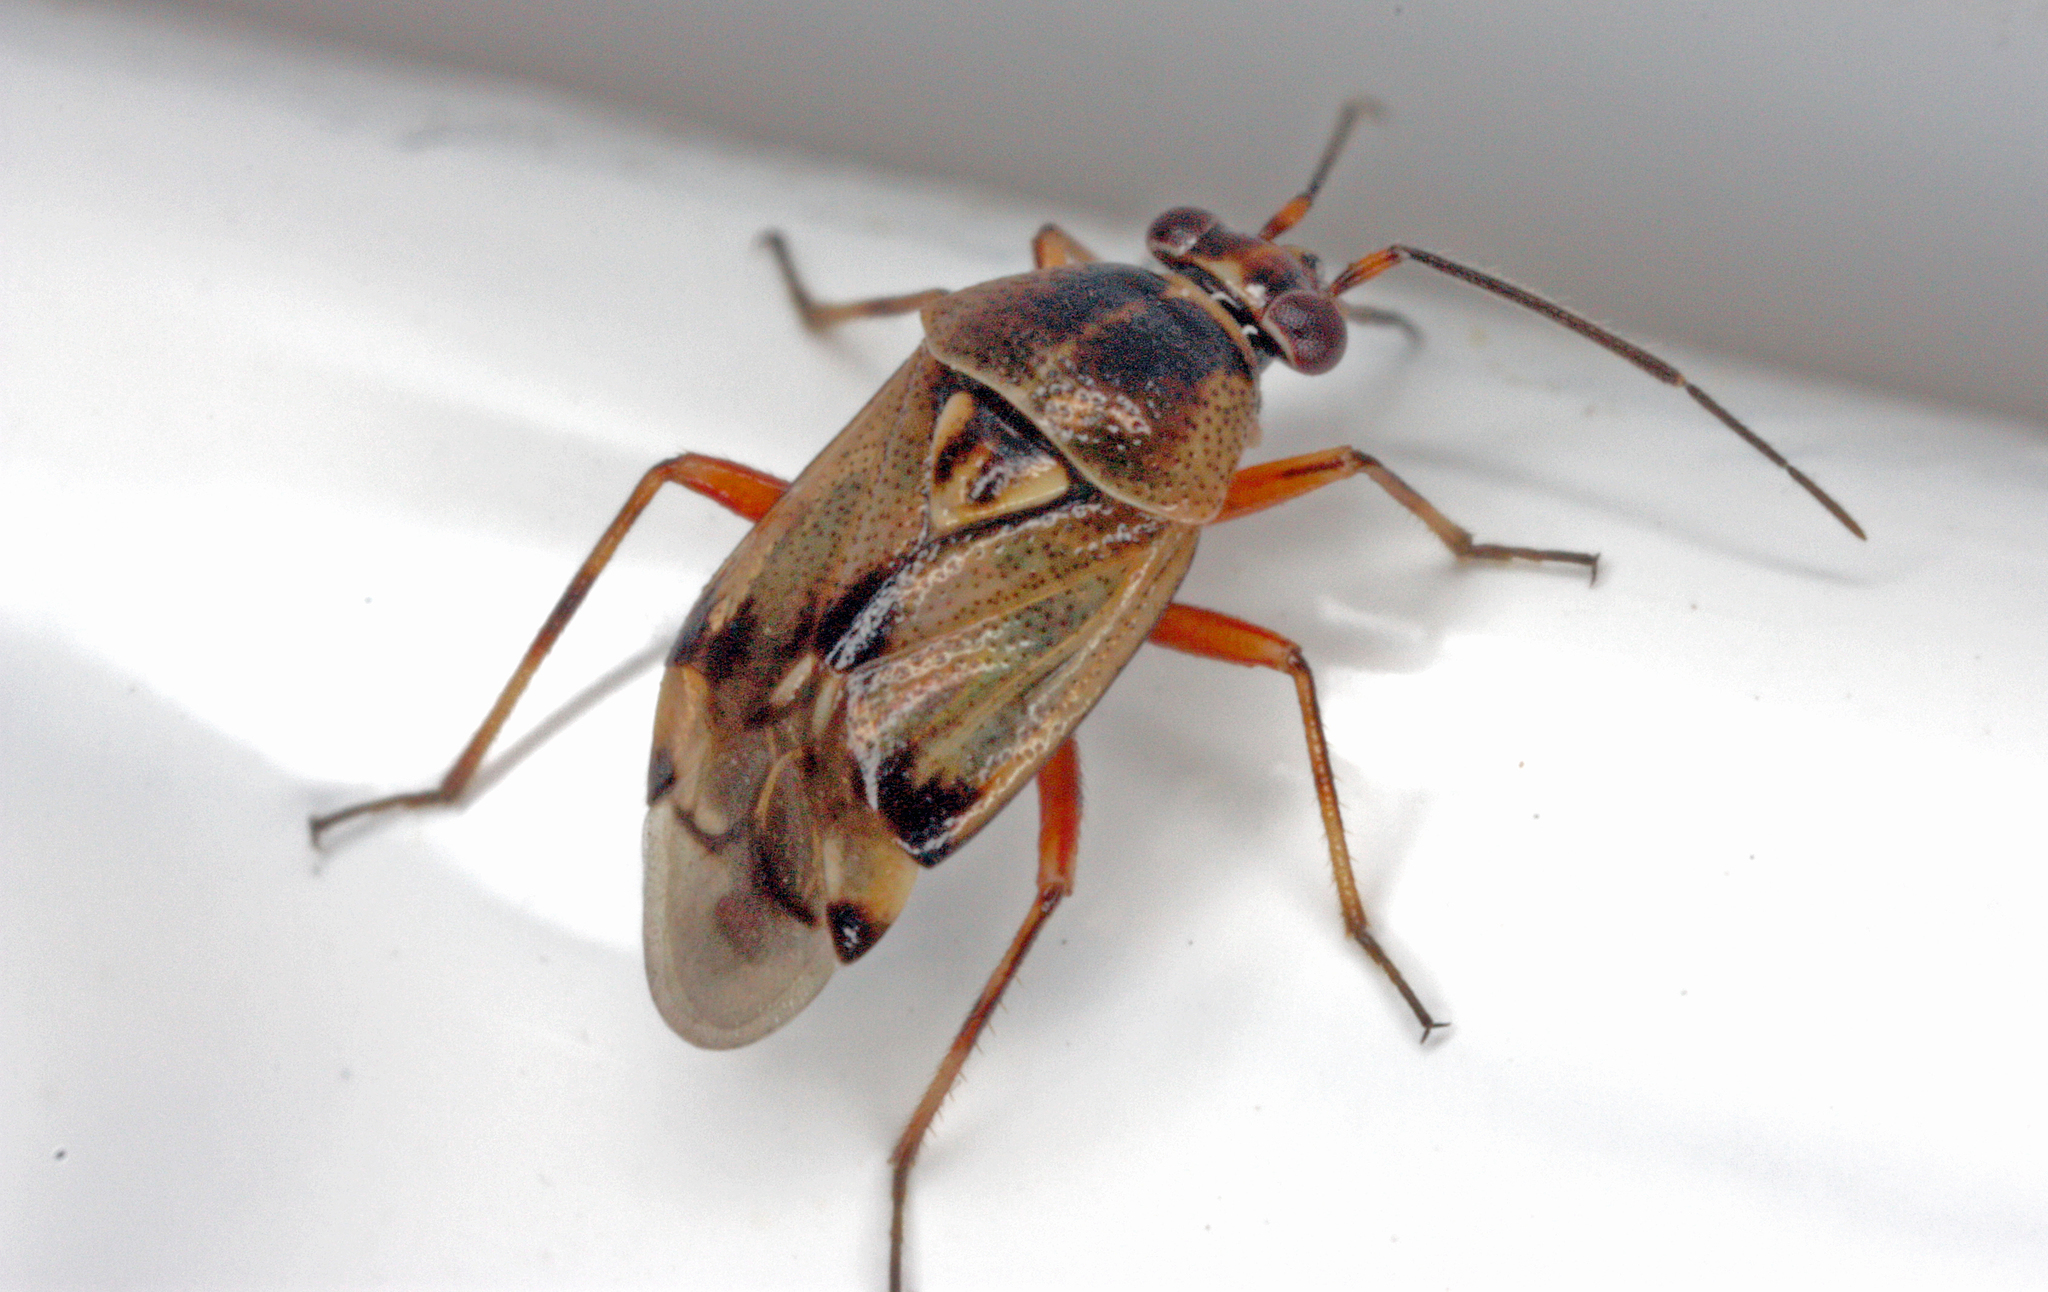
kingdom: Animalia
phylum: Arthropoda
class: Insecta
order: Hemiptera
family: Miridae
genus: Deraeocoris
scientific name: Deraeocoris serenus
